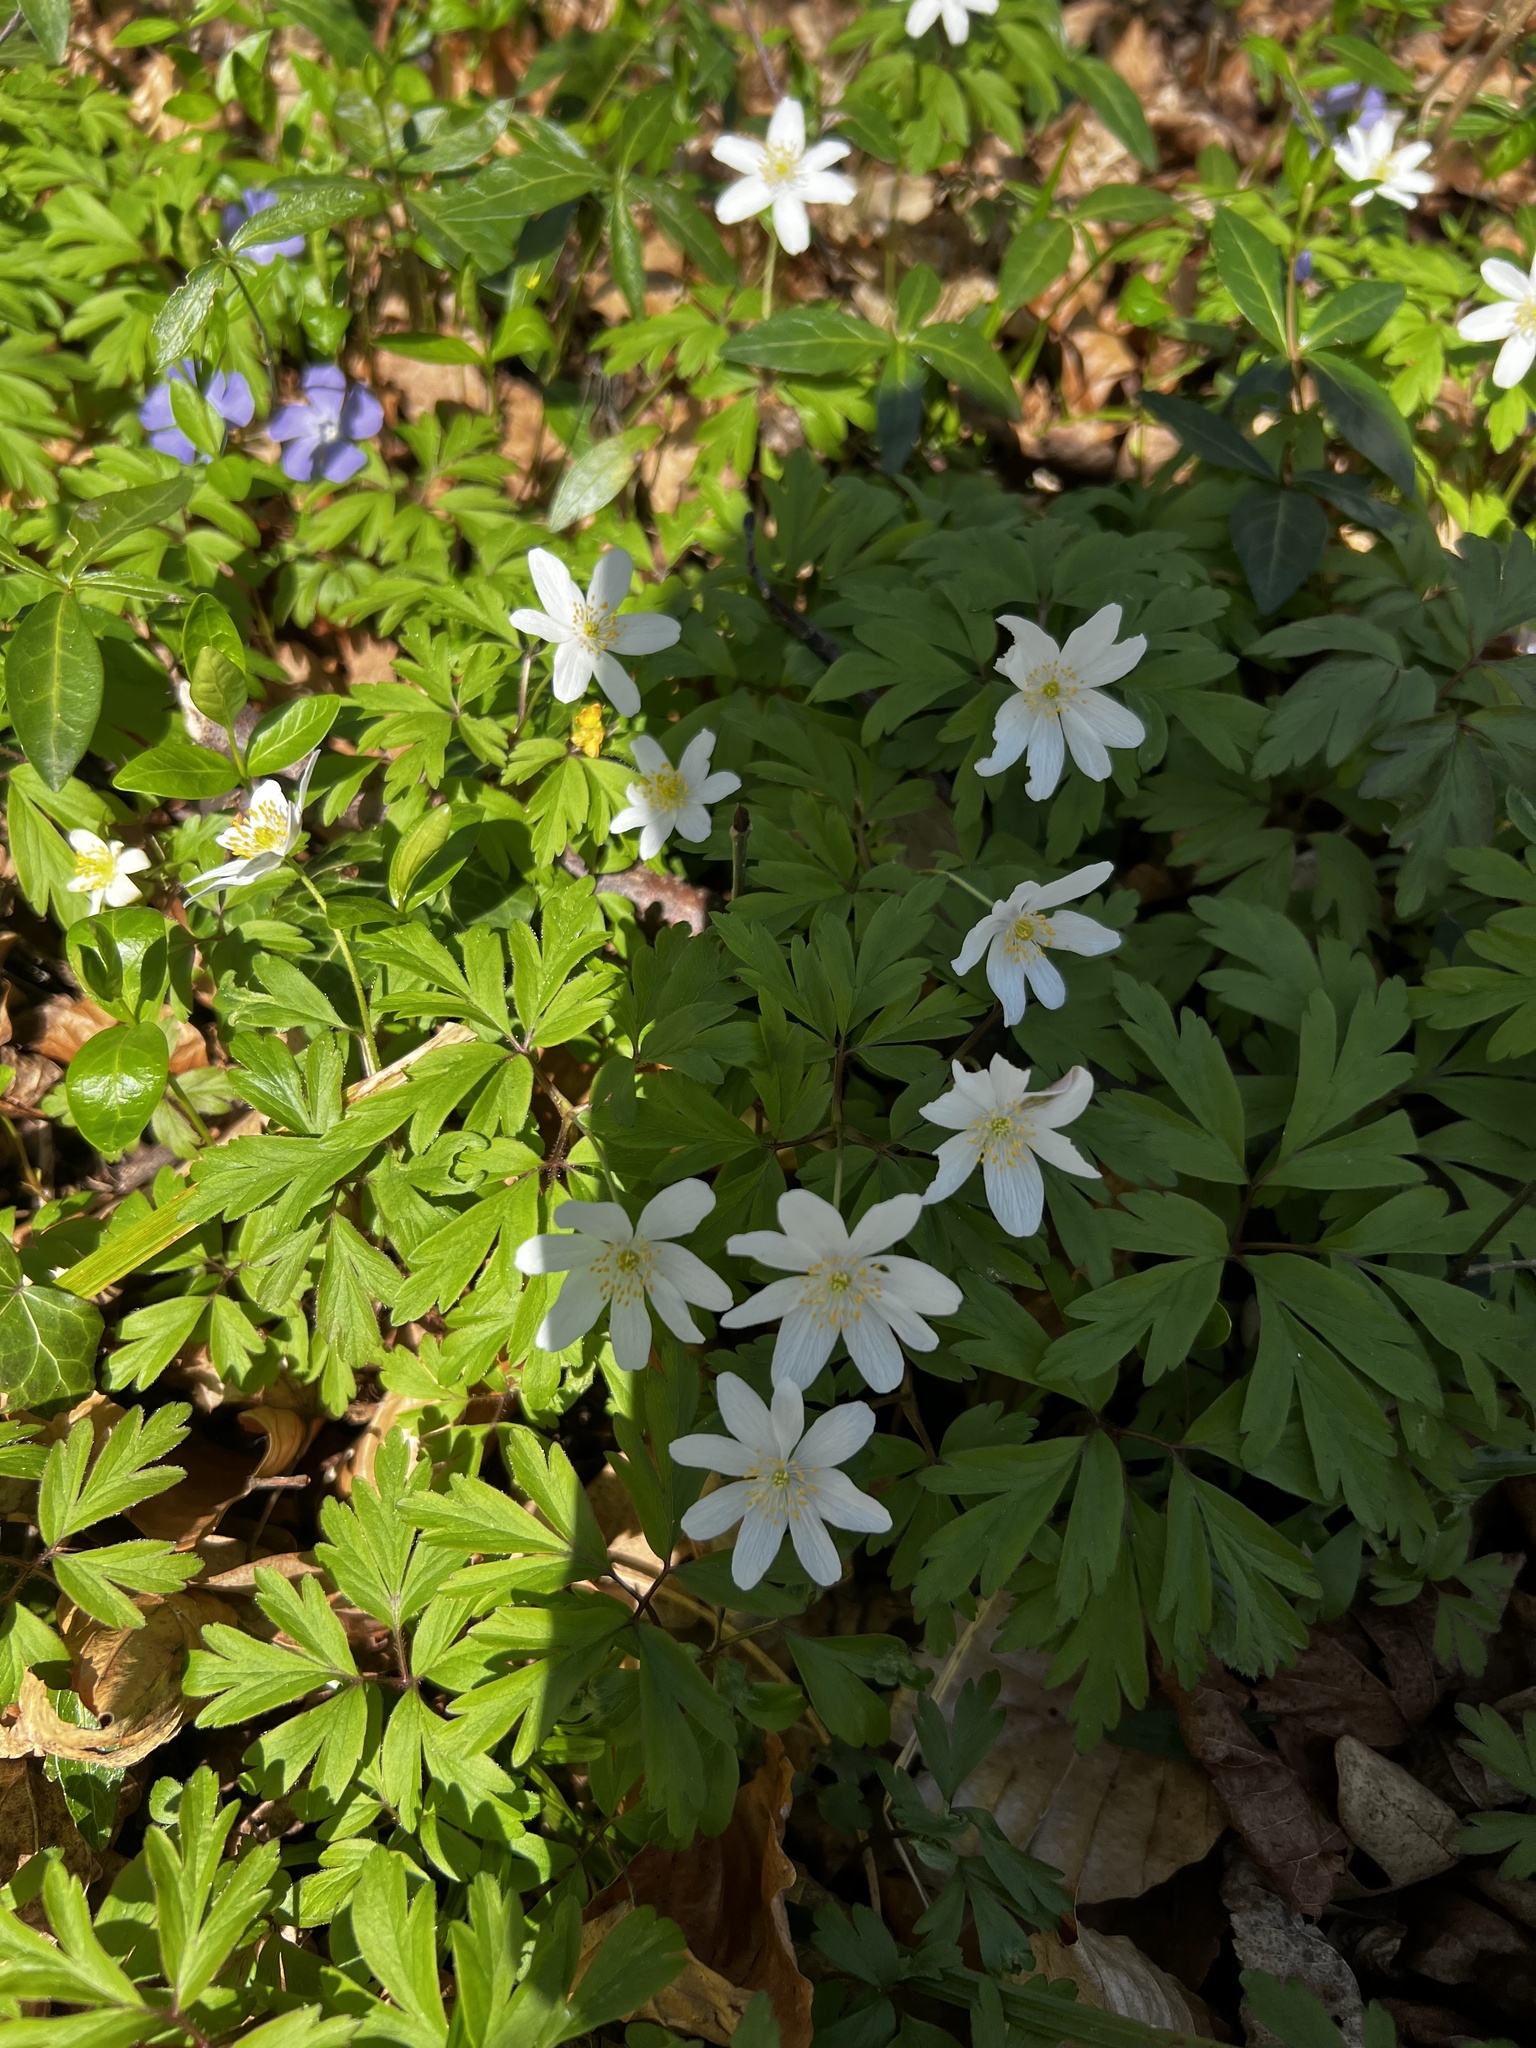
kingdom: Plantae
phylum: Tracheophyta
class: Magnoliopsida
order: Ranunculales
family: Ranunculaceae
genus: Anemone
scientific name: Anemone nemorosa
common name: Wood anemone
